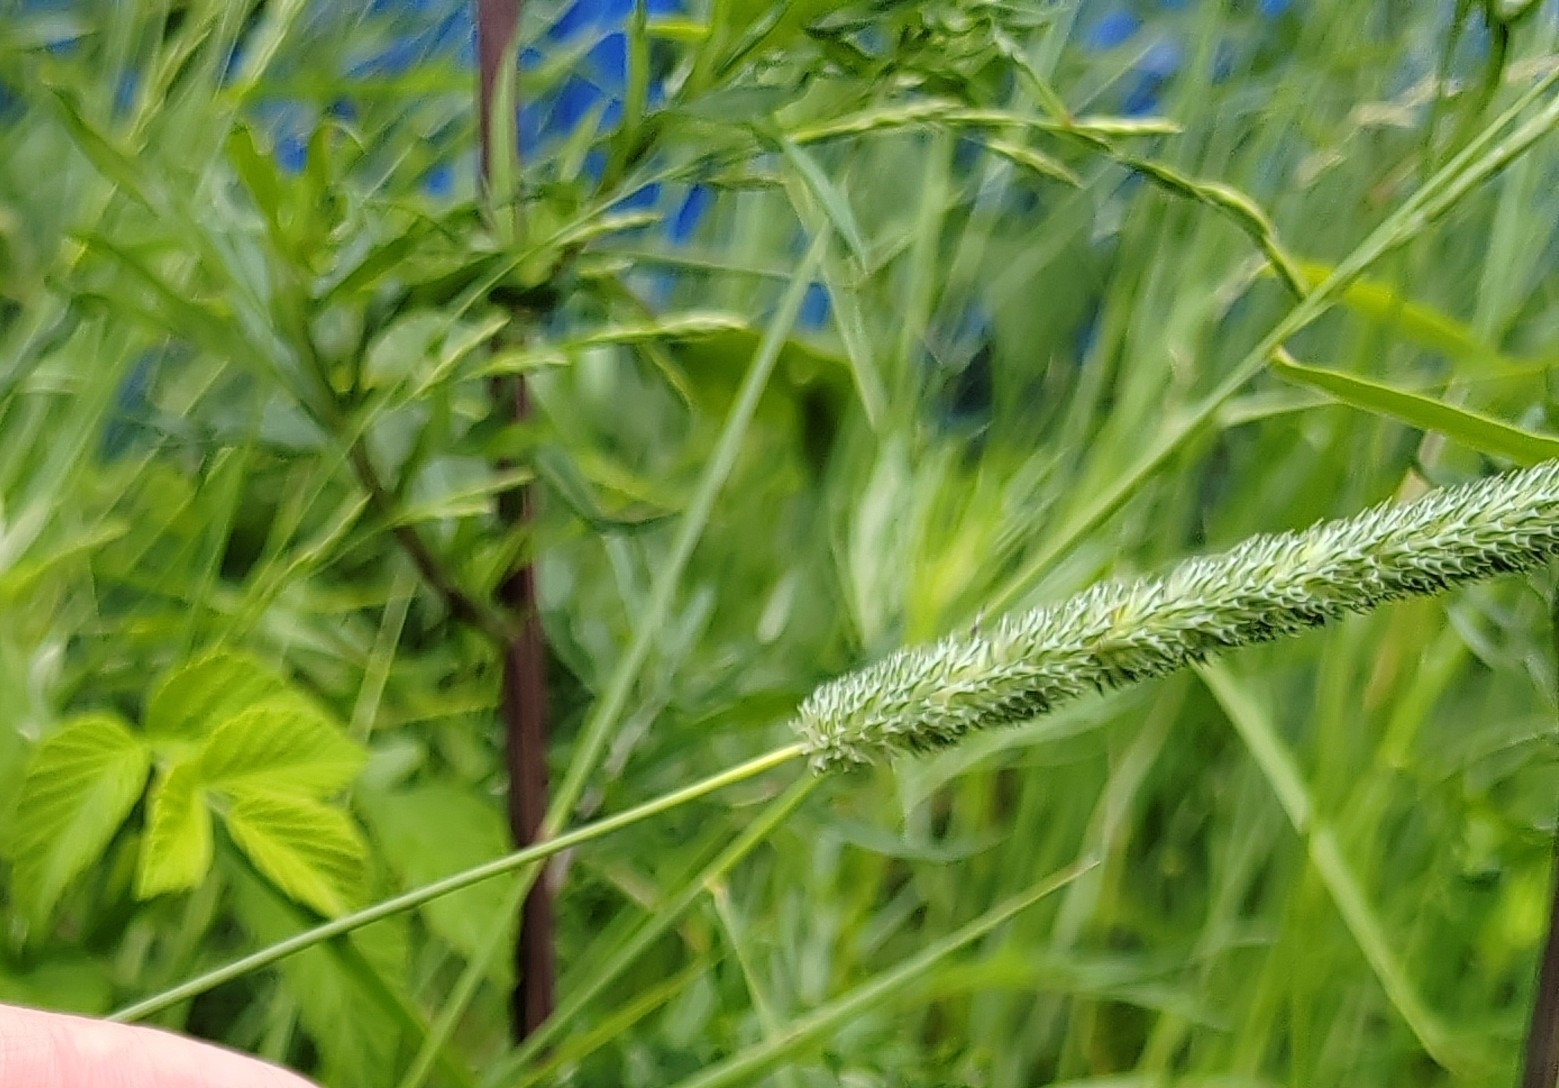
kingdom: Plantae
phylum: Tracheophyta
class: Liliopsida
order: Poales
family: Poaceae
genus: Phleum
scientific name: Phleum pratense
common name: Timothy grass
